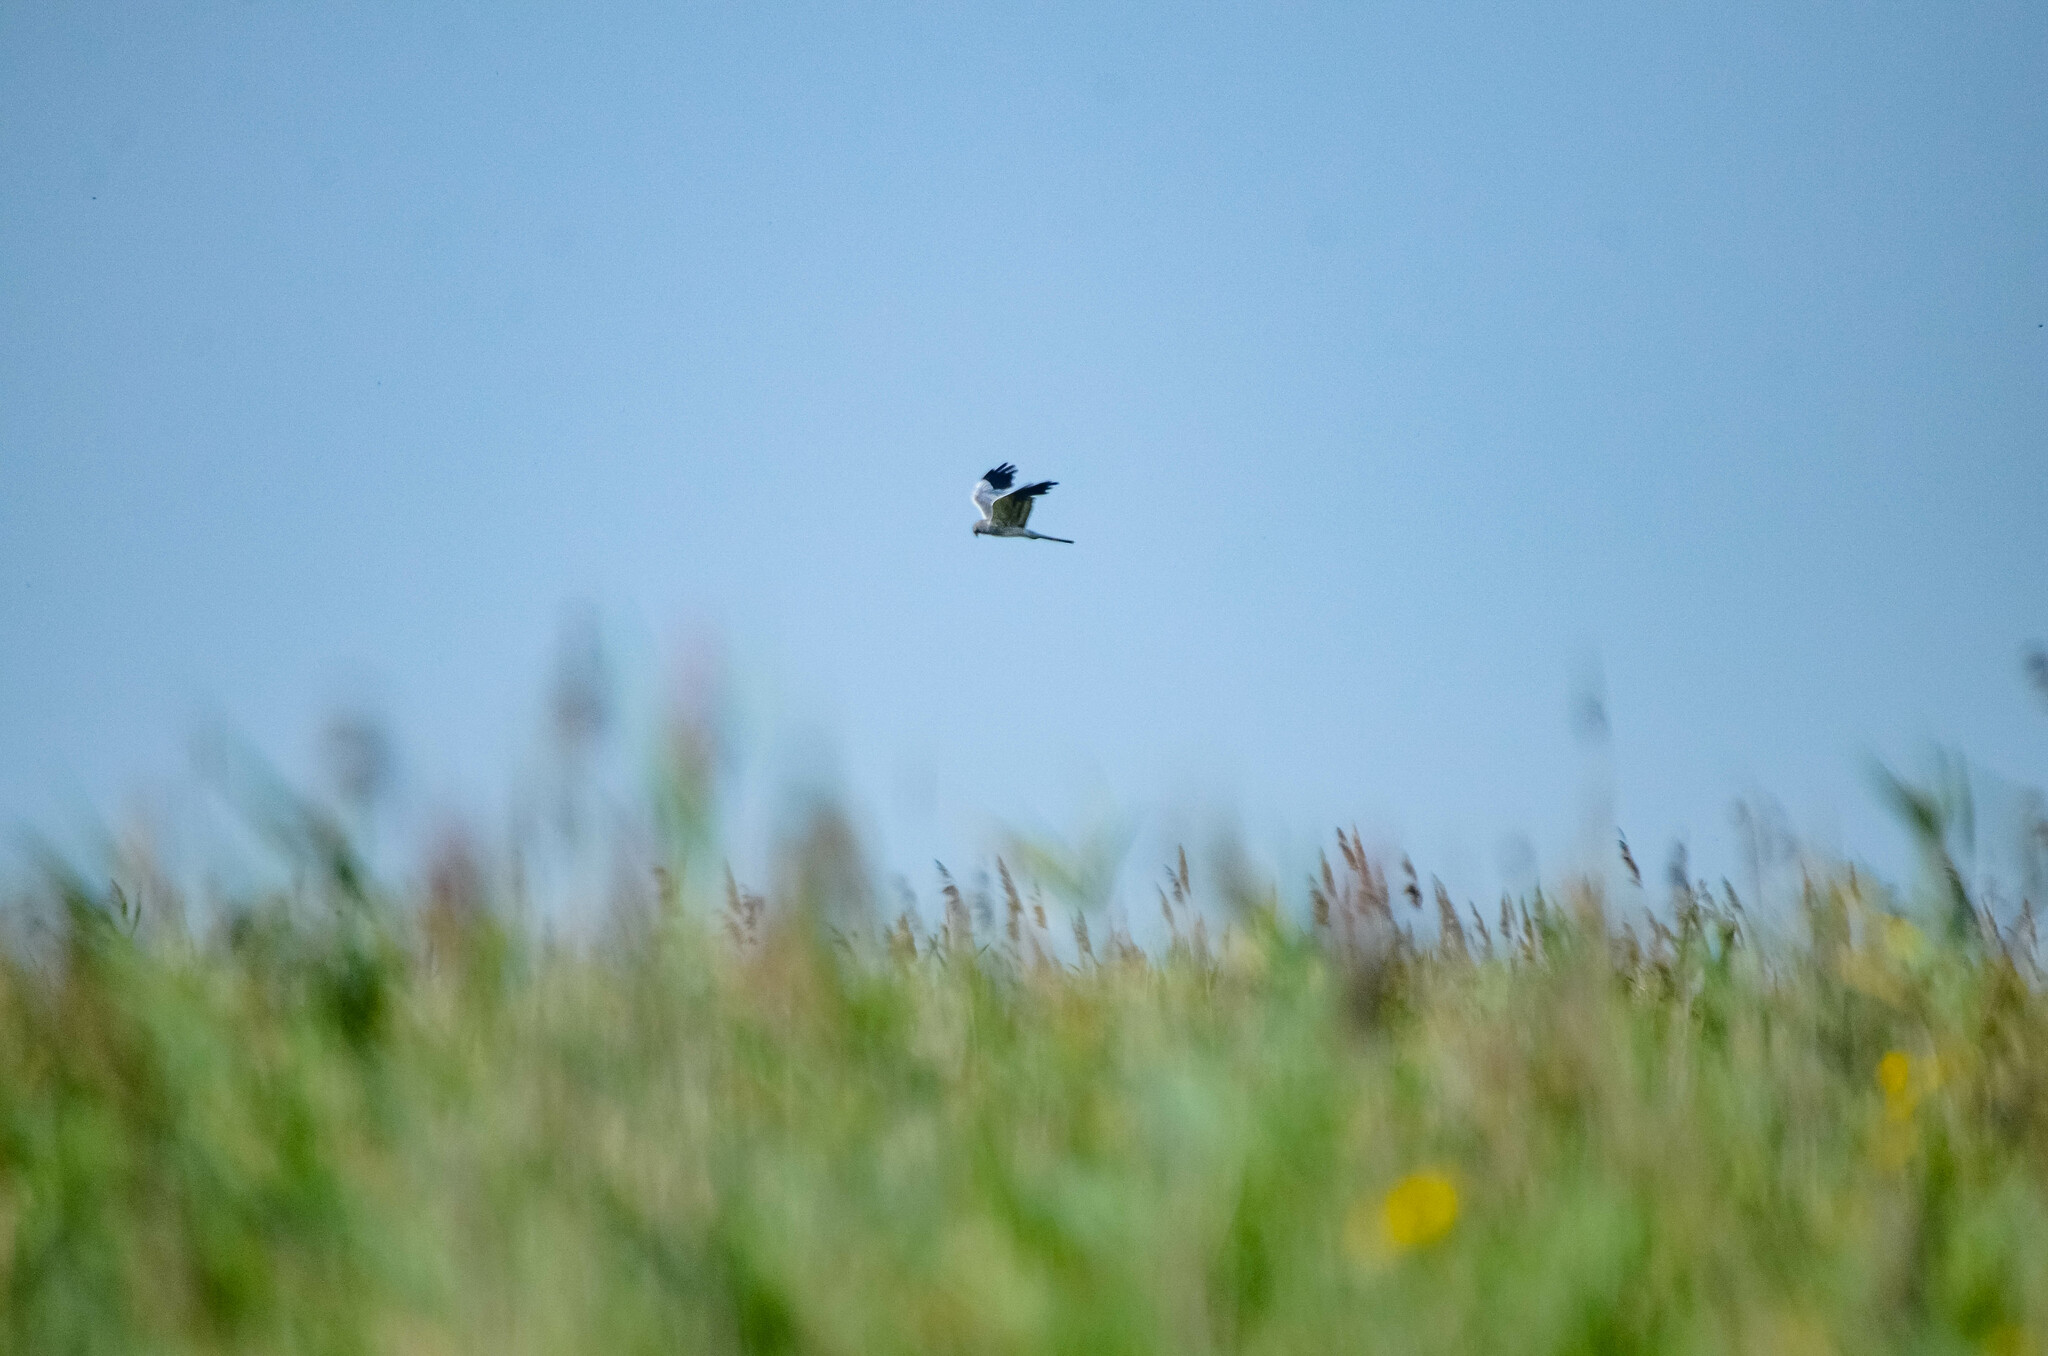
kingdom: Animalia
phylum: Chordata
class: Aves
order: Accipitriformes
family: Accipitridae
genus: Circus
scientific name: Circus pygargus
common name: Montagu's harrier
